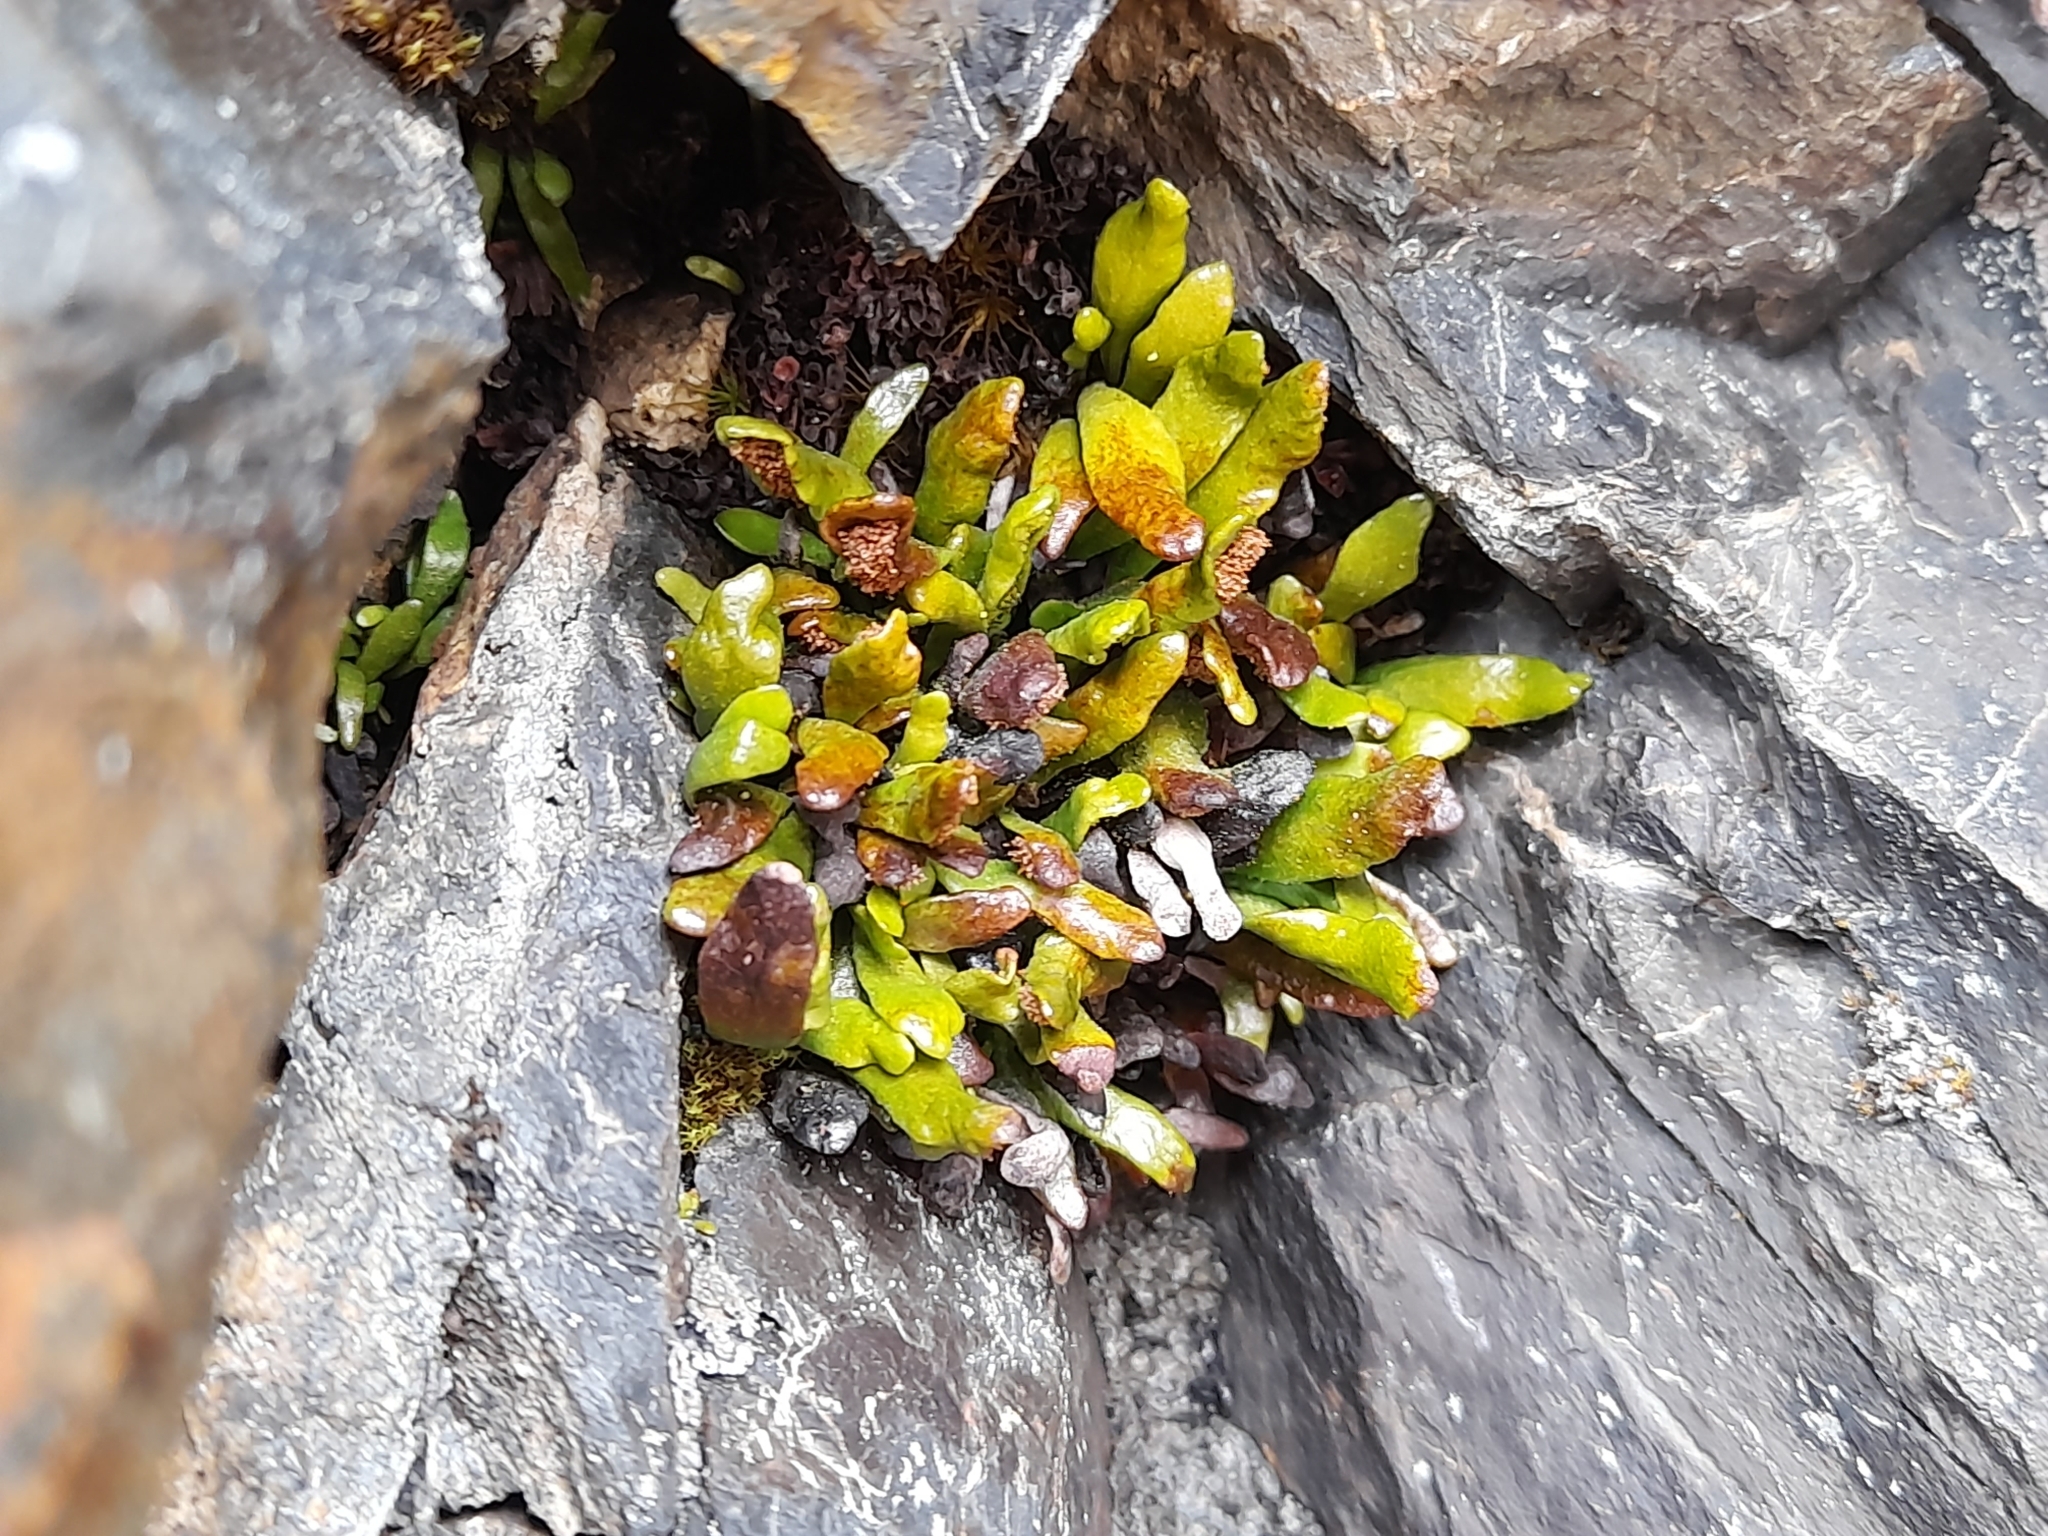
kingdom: Plantae
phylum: Tracheophyta
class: Polypodiopsida
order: Polypodiales
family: Polypodiaceae
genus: Notogrammitis
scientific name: Notogrammitis crassior
